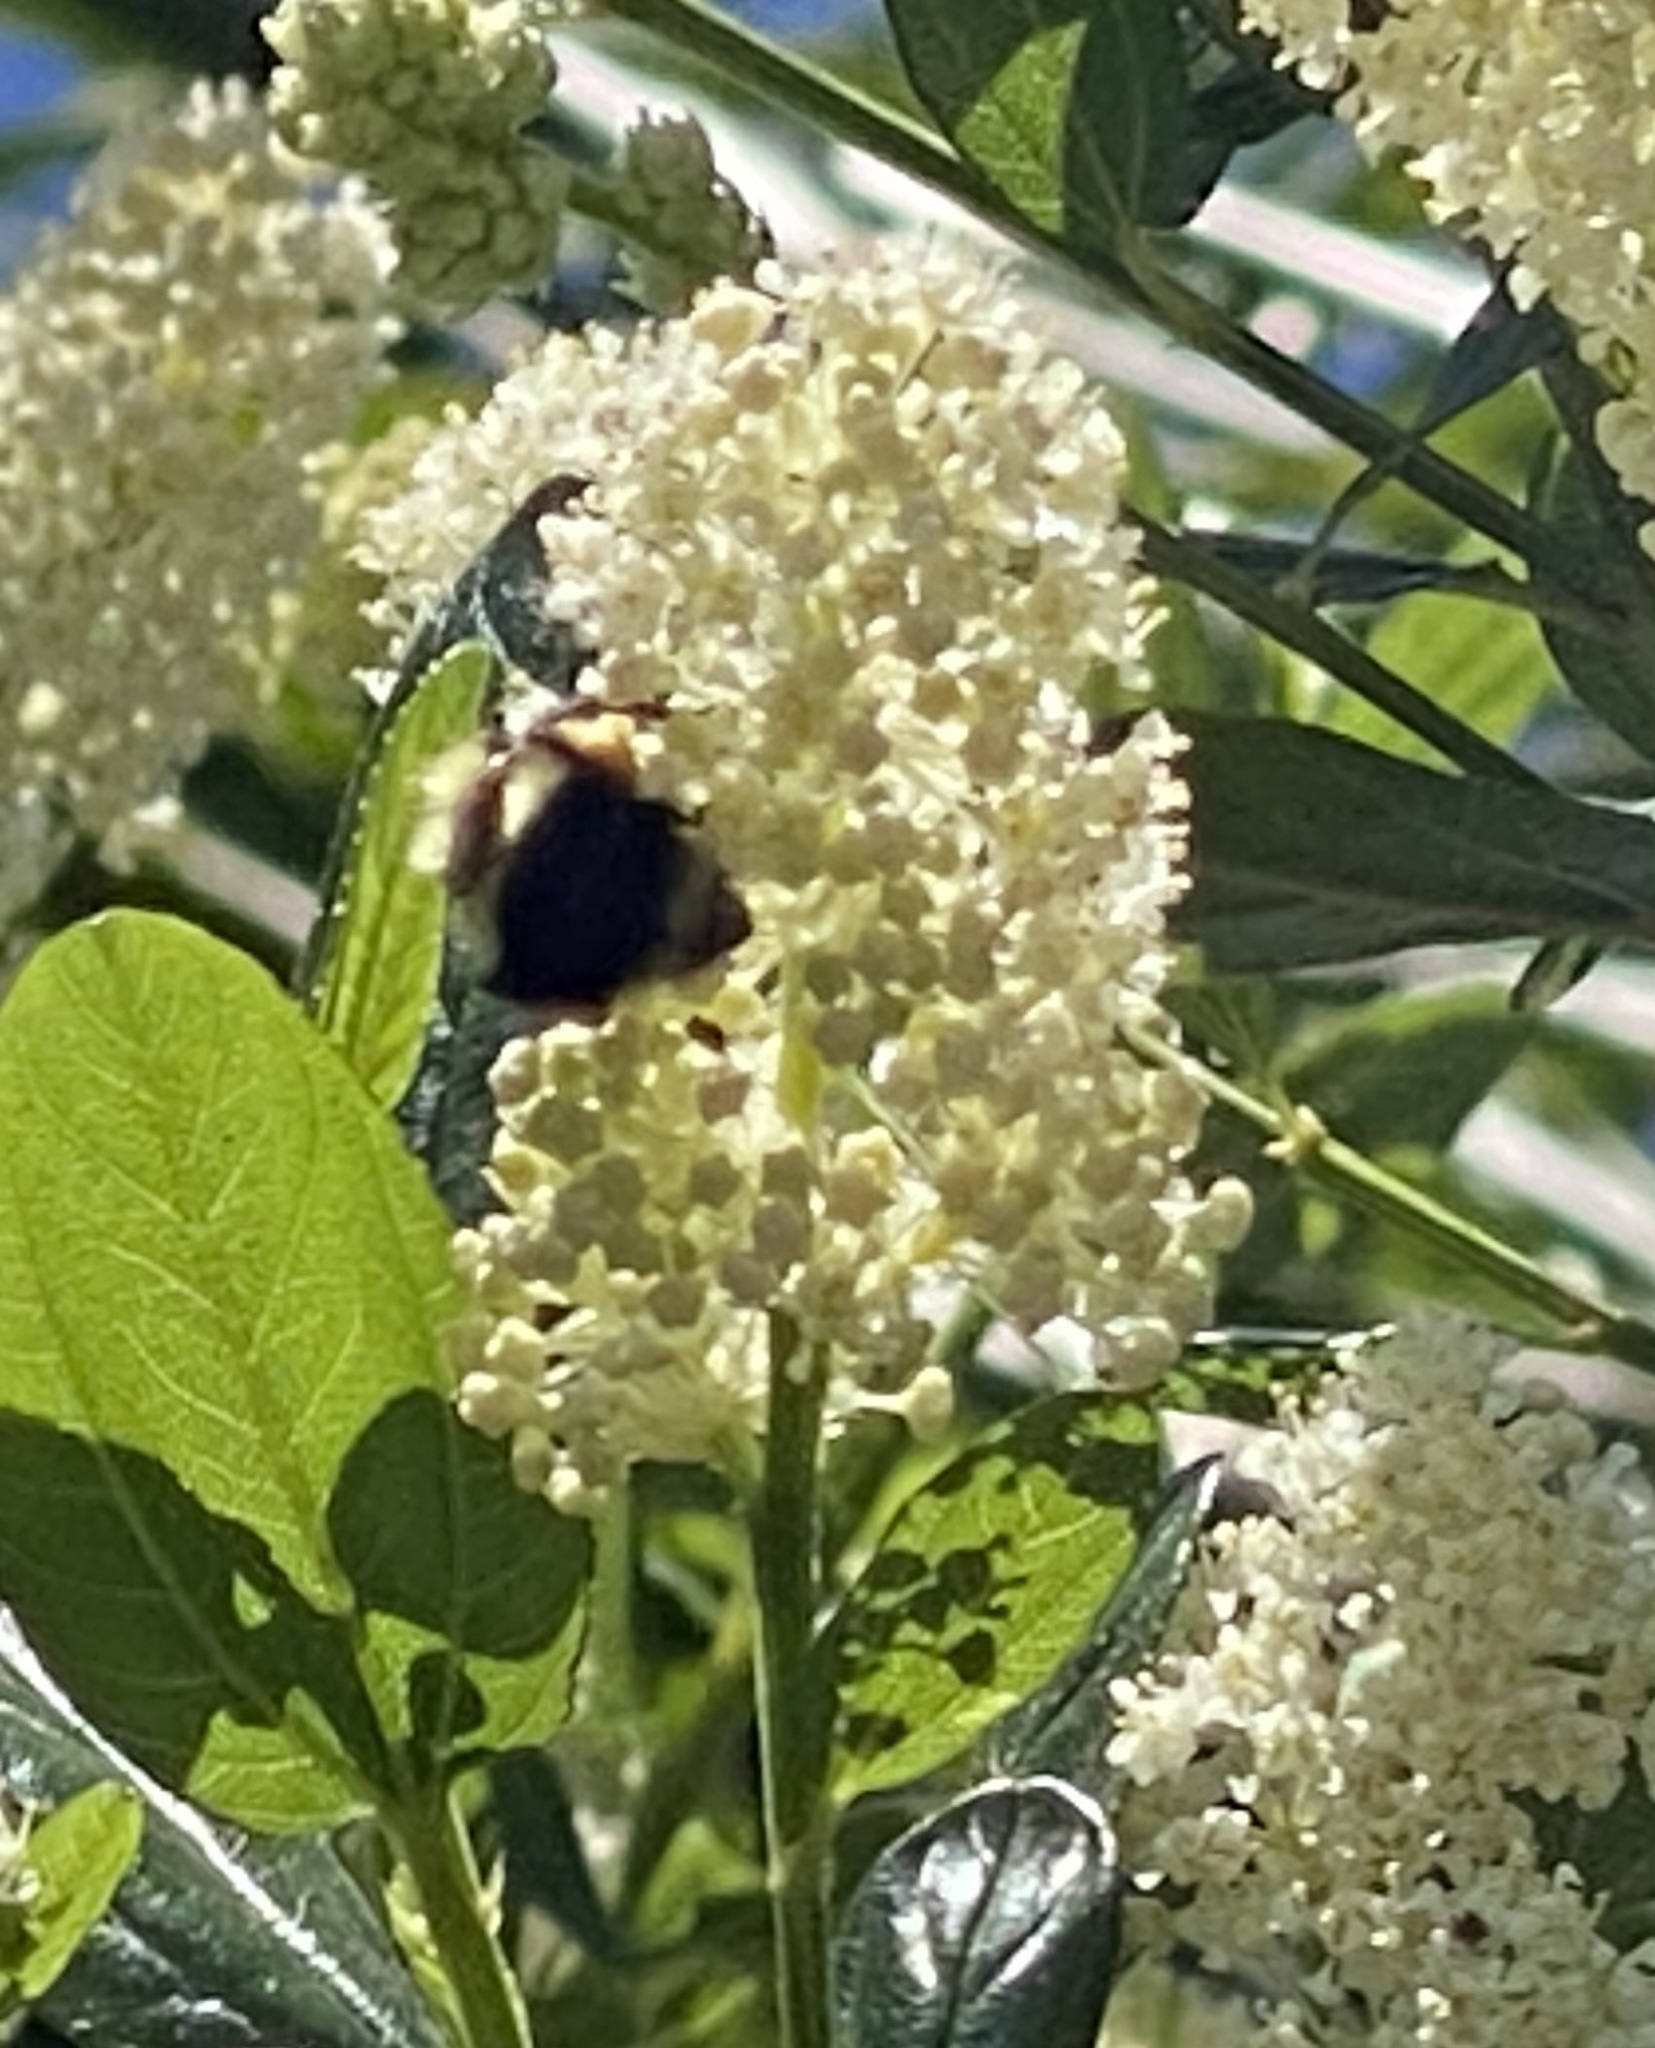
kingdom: Animalia
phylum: Arthropoda
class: Insecta
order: Hymenoptera
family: Apidae
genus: Bombus
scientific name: Bombus melanopygus
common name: Black tail bumble bee
